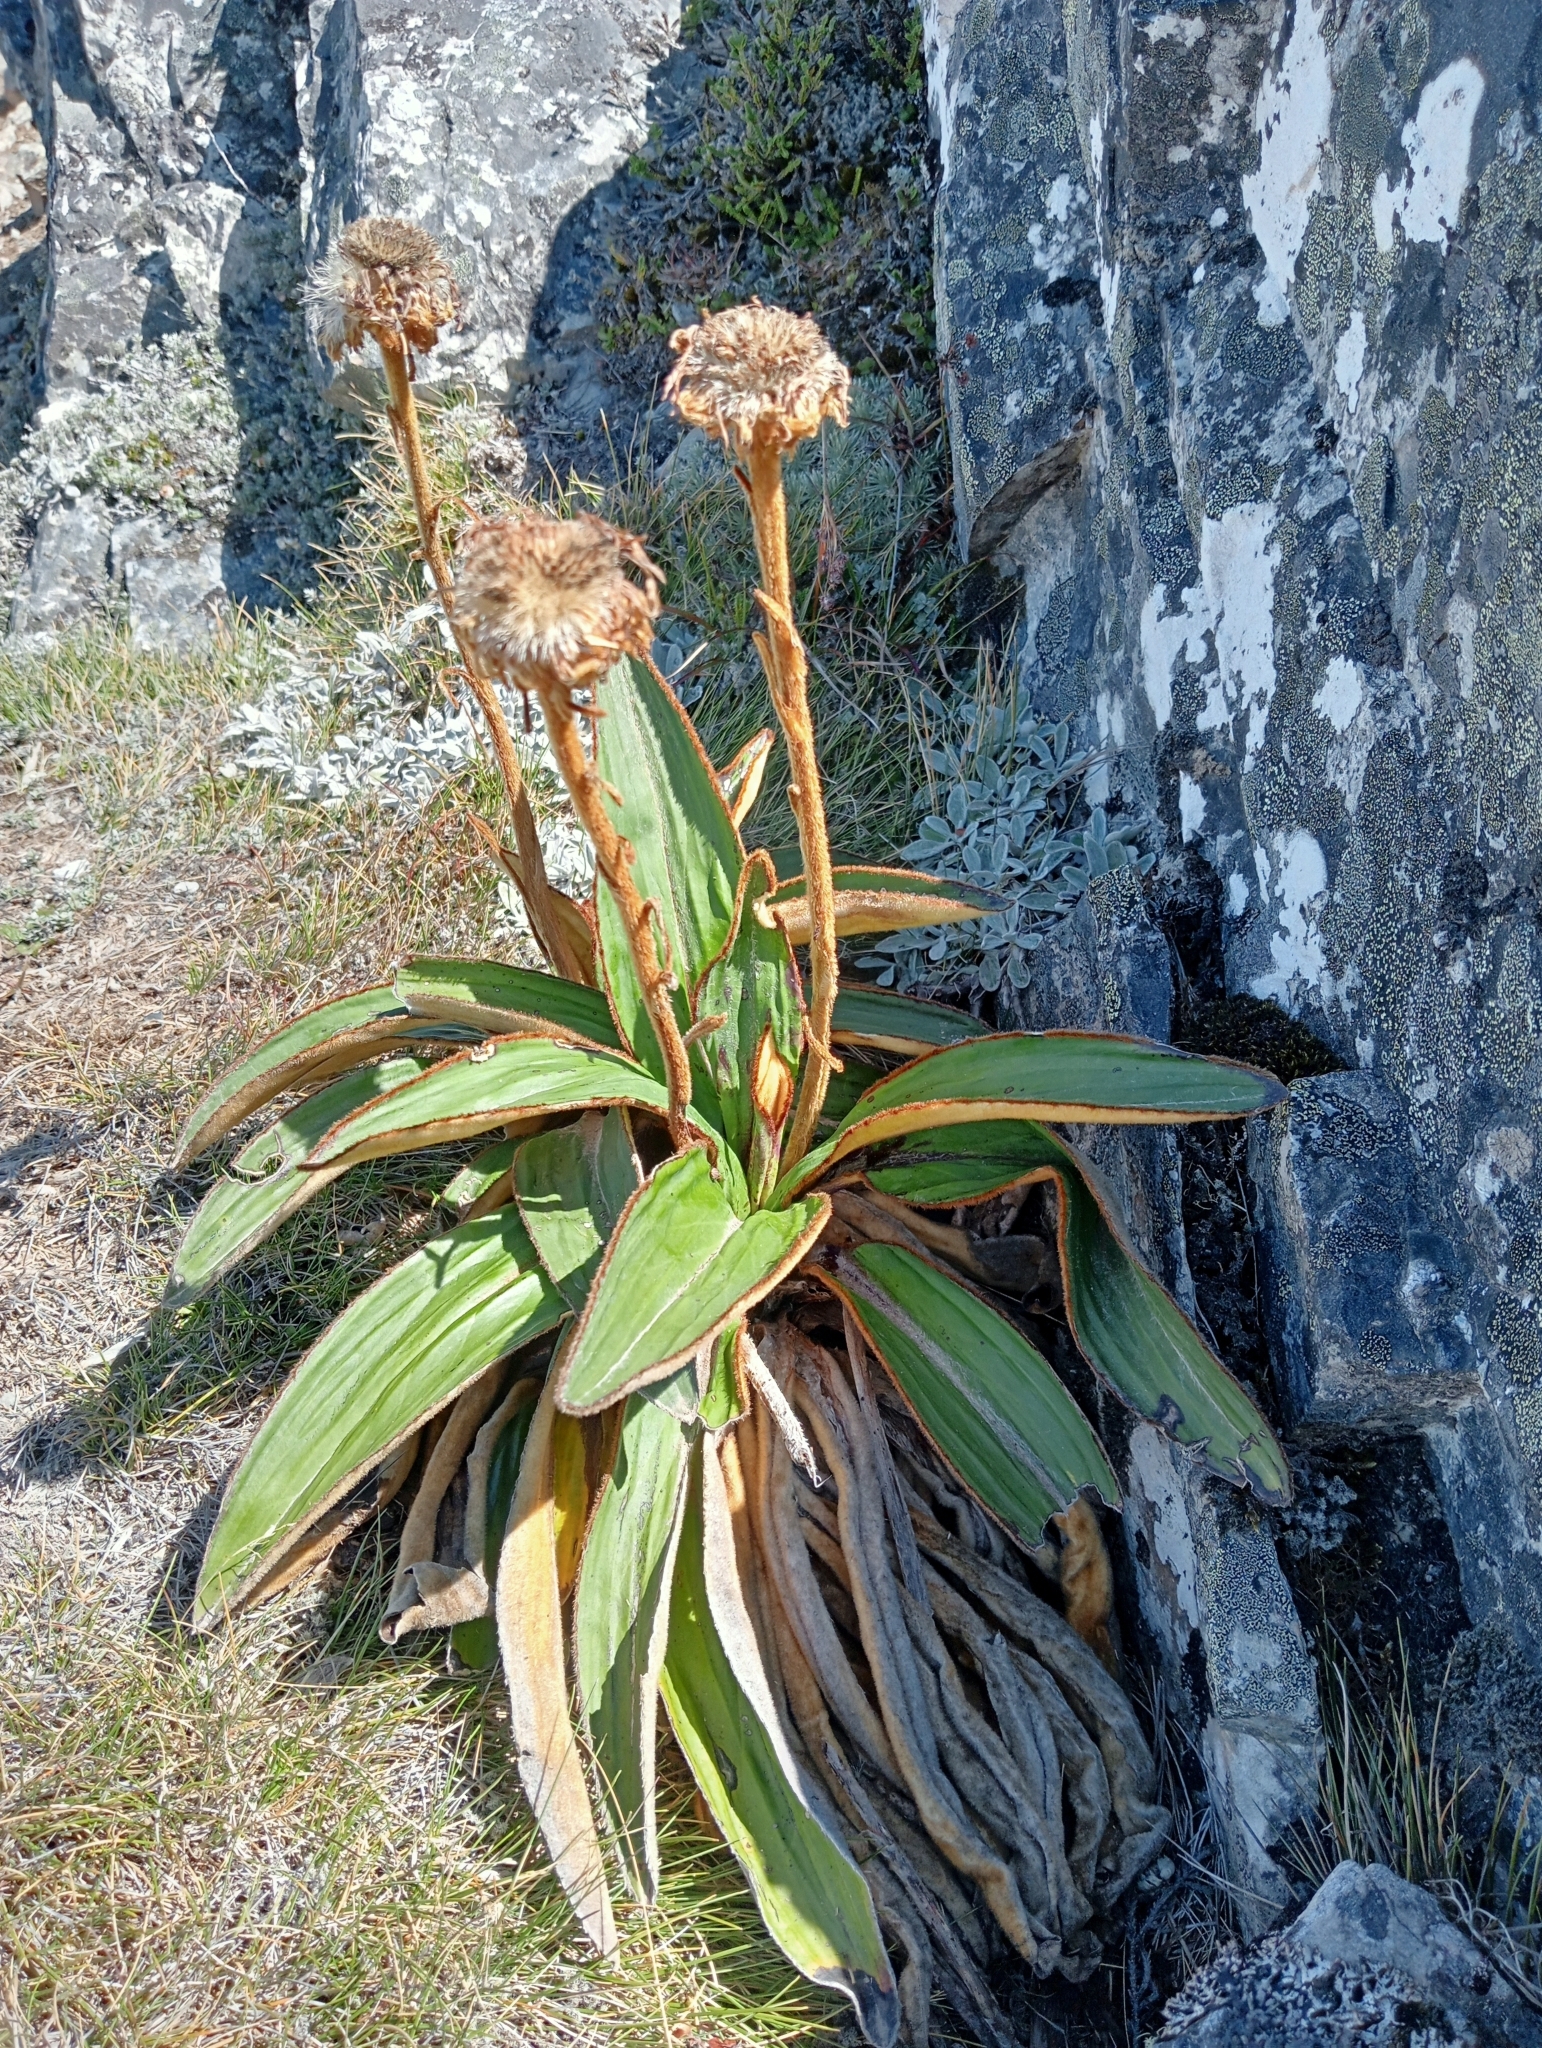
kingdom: Plantae
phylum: Tracheophyta
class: Magnoliopsida
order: Asterales
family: Asteraceae
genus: Celmisia
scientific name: Celmisia traversii
